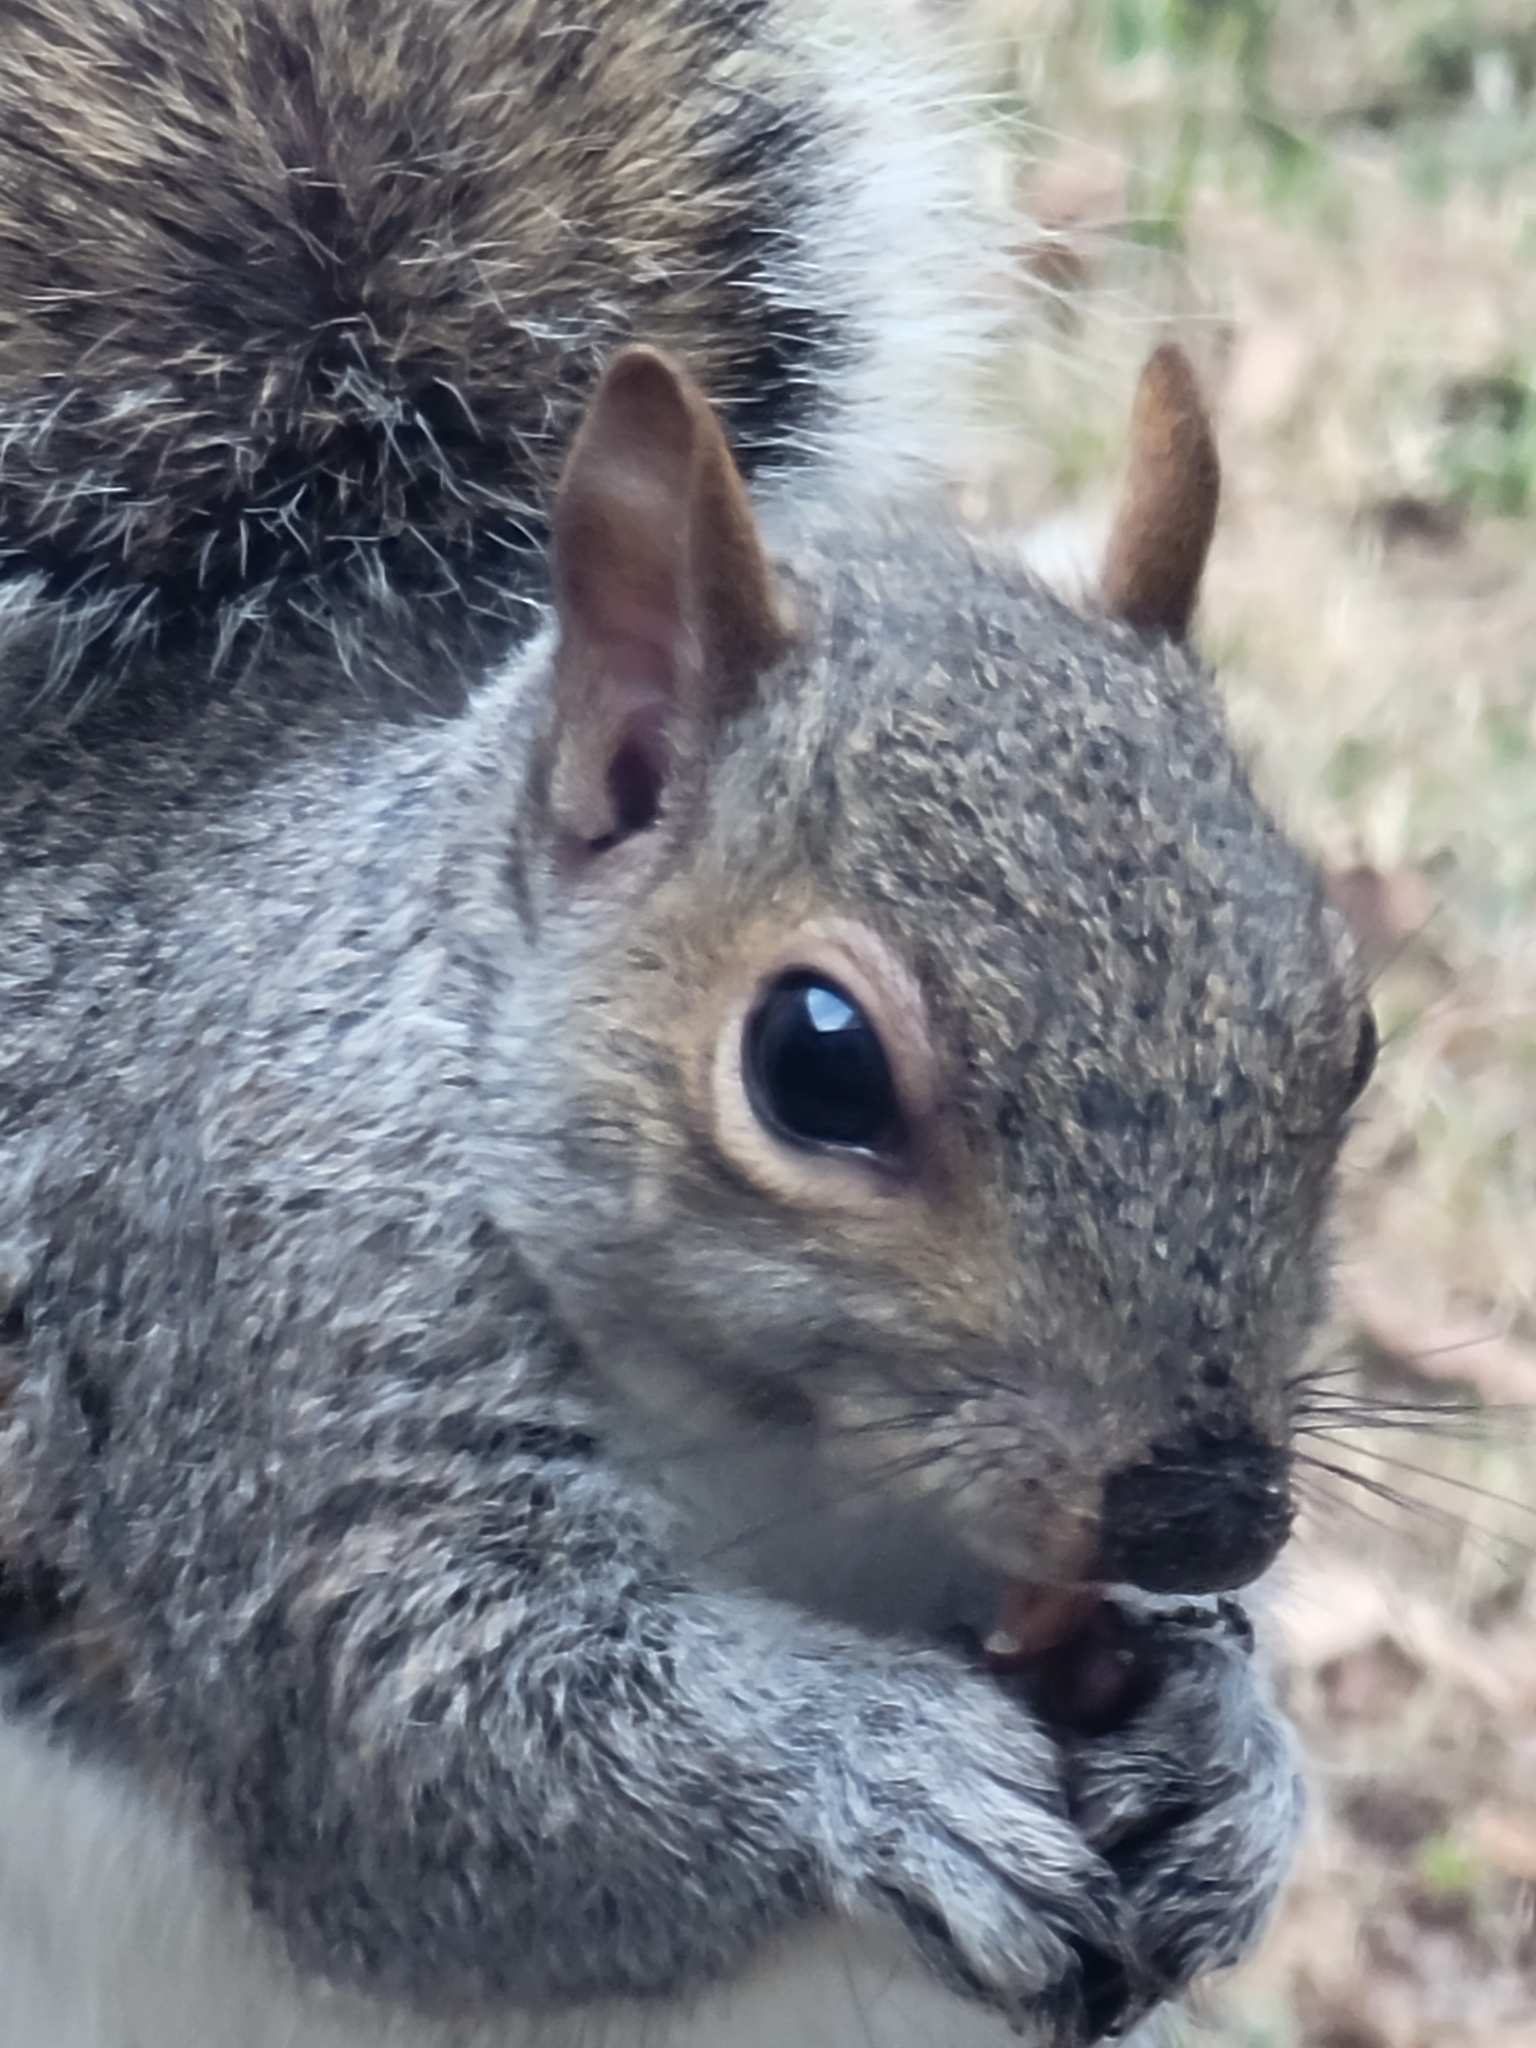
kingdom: Animalia
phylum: Chordata
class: Mammalia
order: Rodentia
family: Sciuridae
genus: Sciurus
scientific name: Sciurus carolinensis
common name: Eastern gray squirrel
